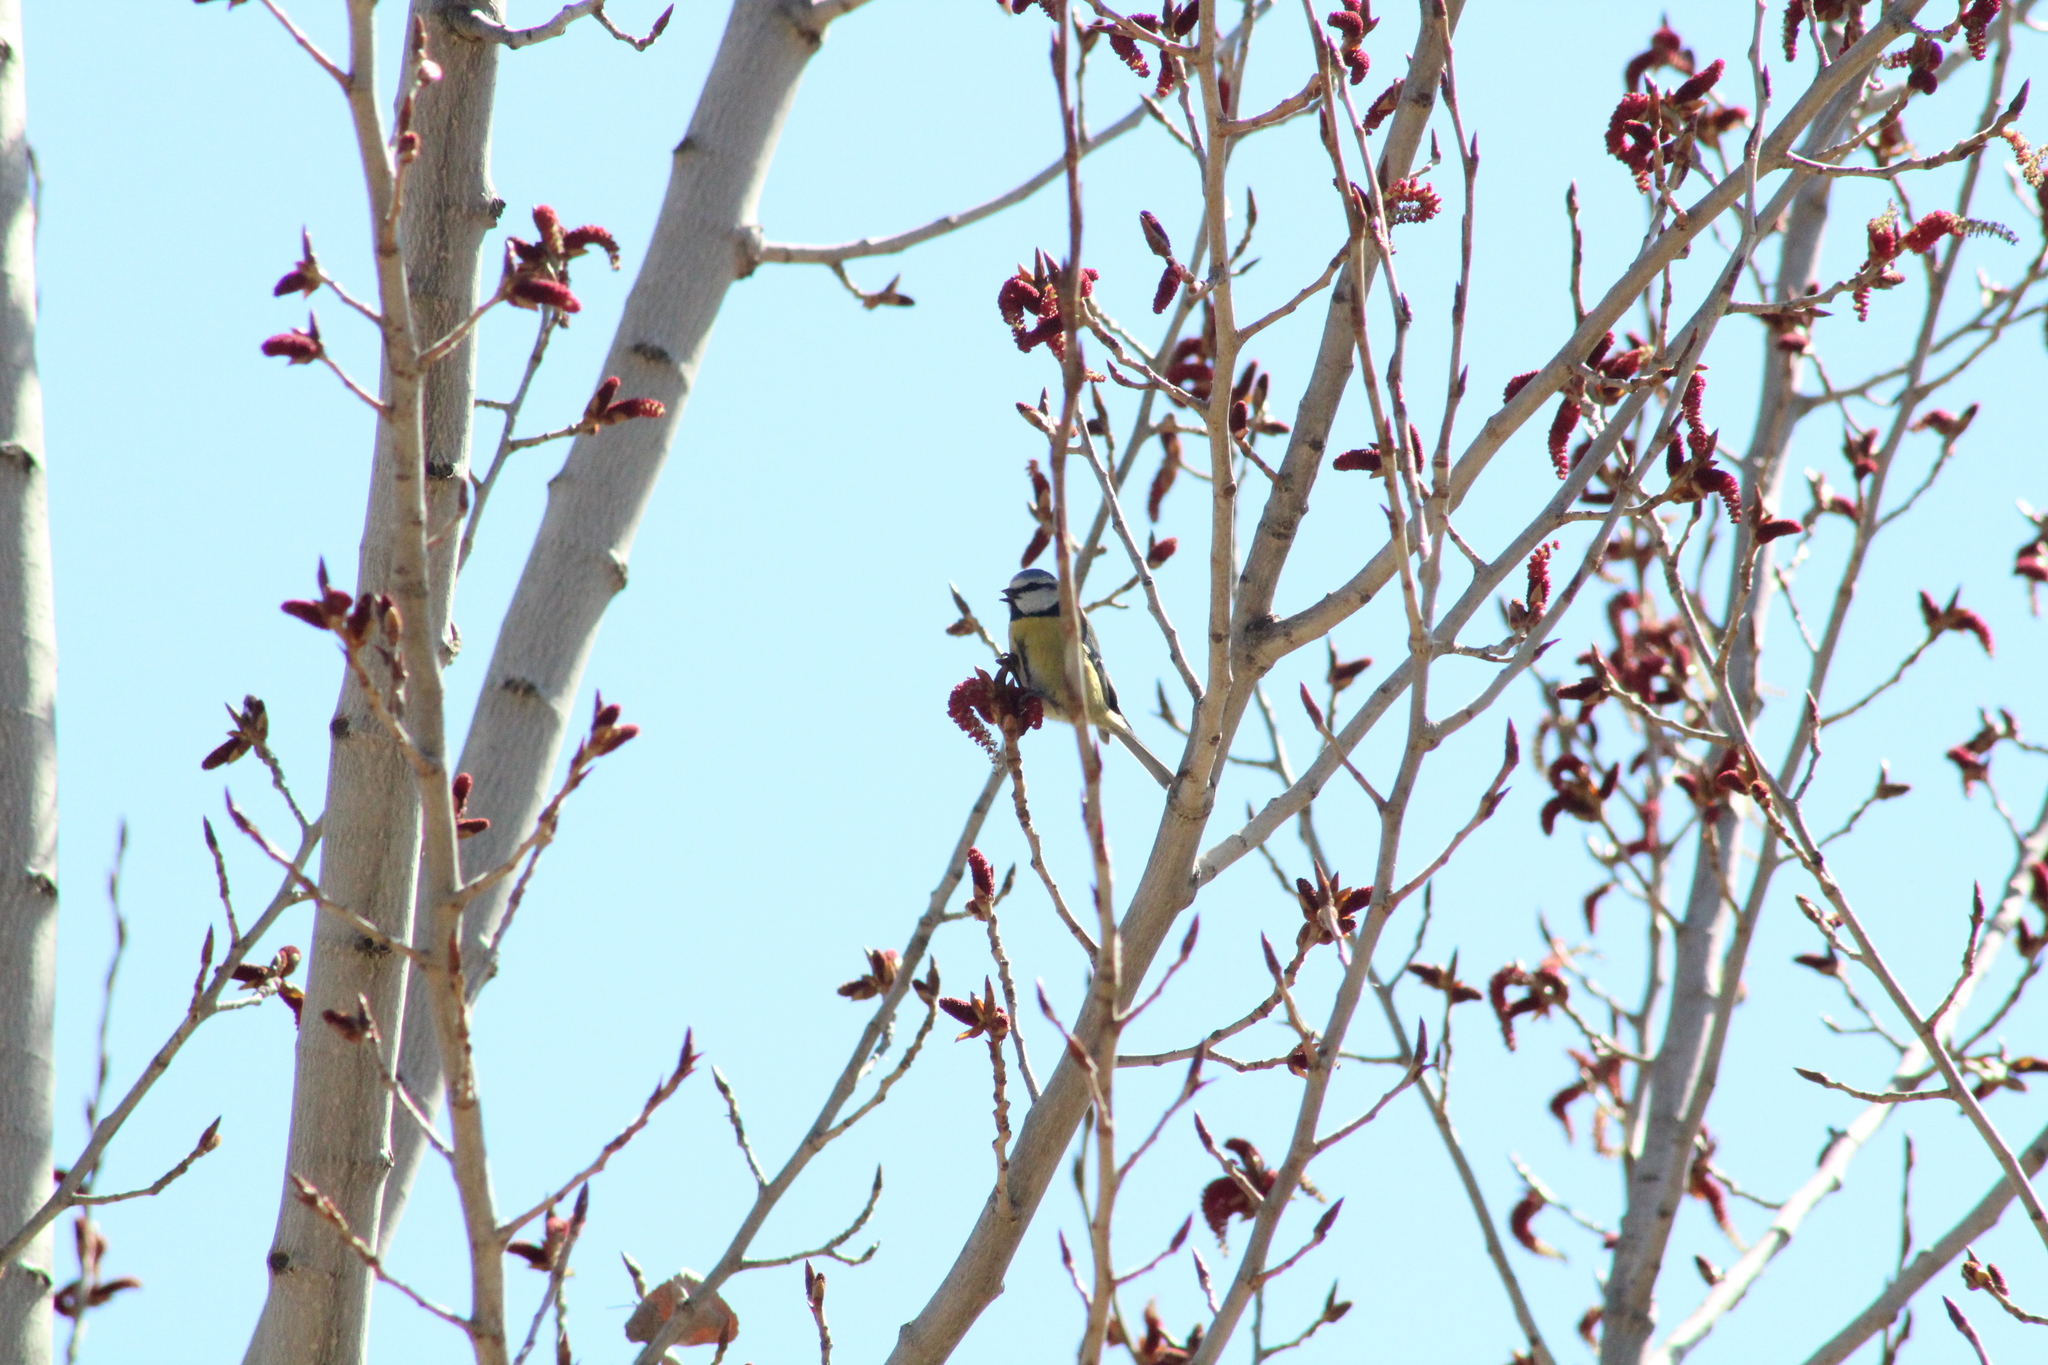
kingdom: Animalia
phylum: Chordata
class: Aves
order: Passeriformes
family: Paridae
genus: Cyanistes
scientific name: Cyanistes caeruleus
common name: Eurasian blue tit
